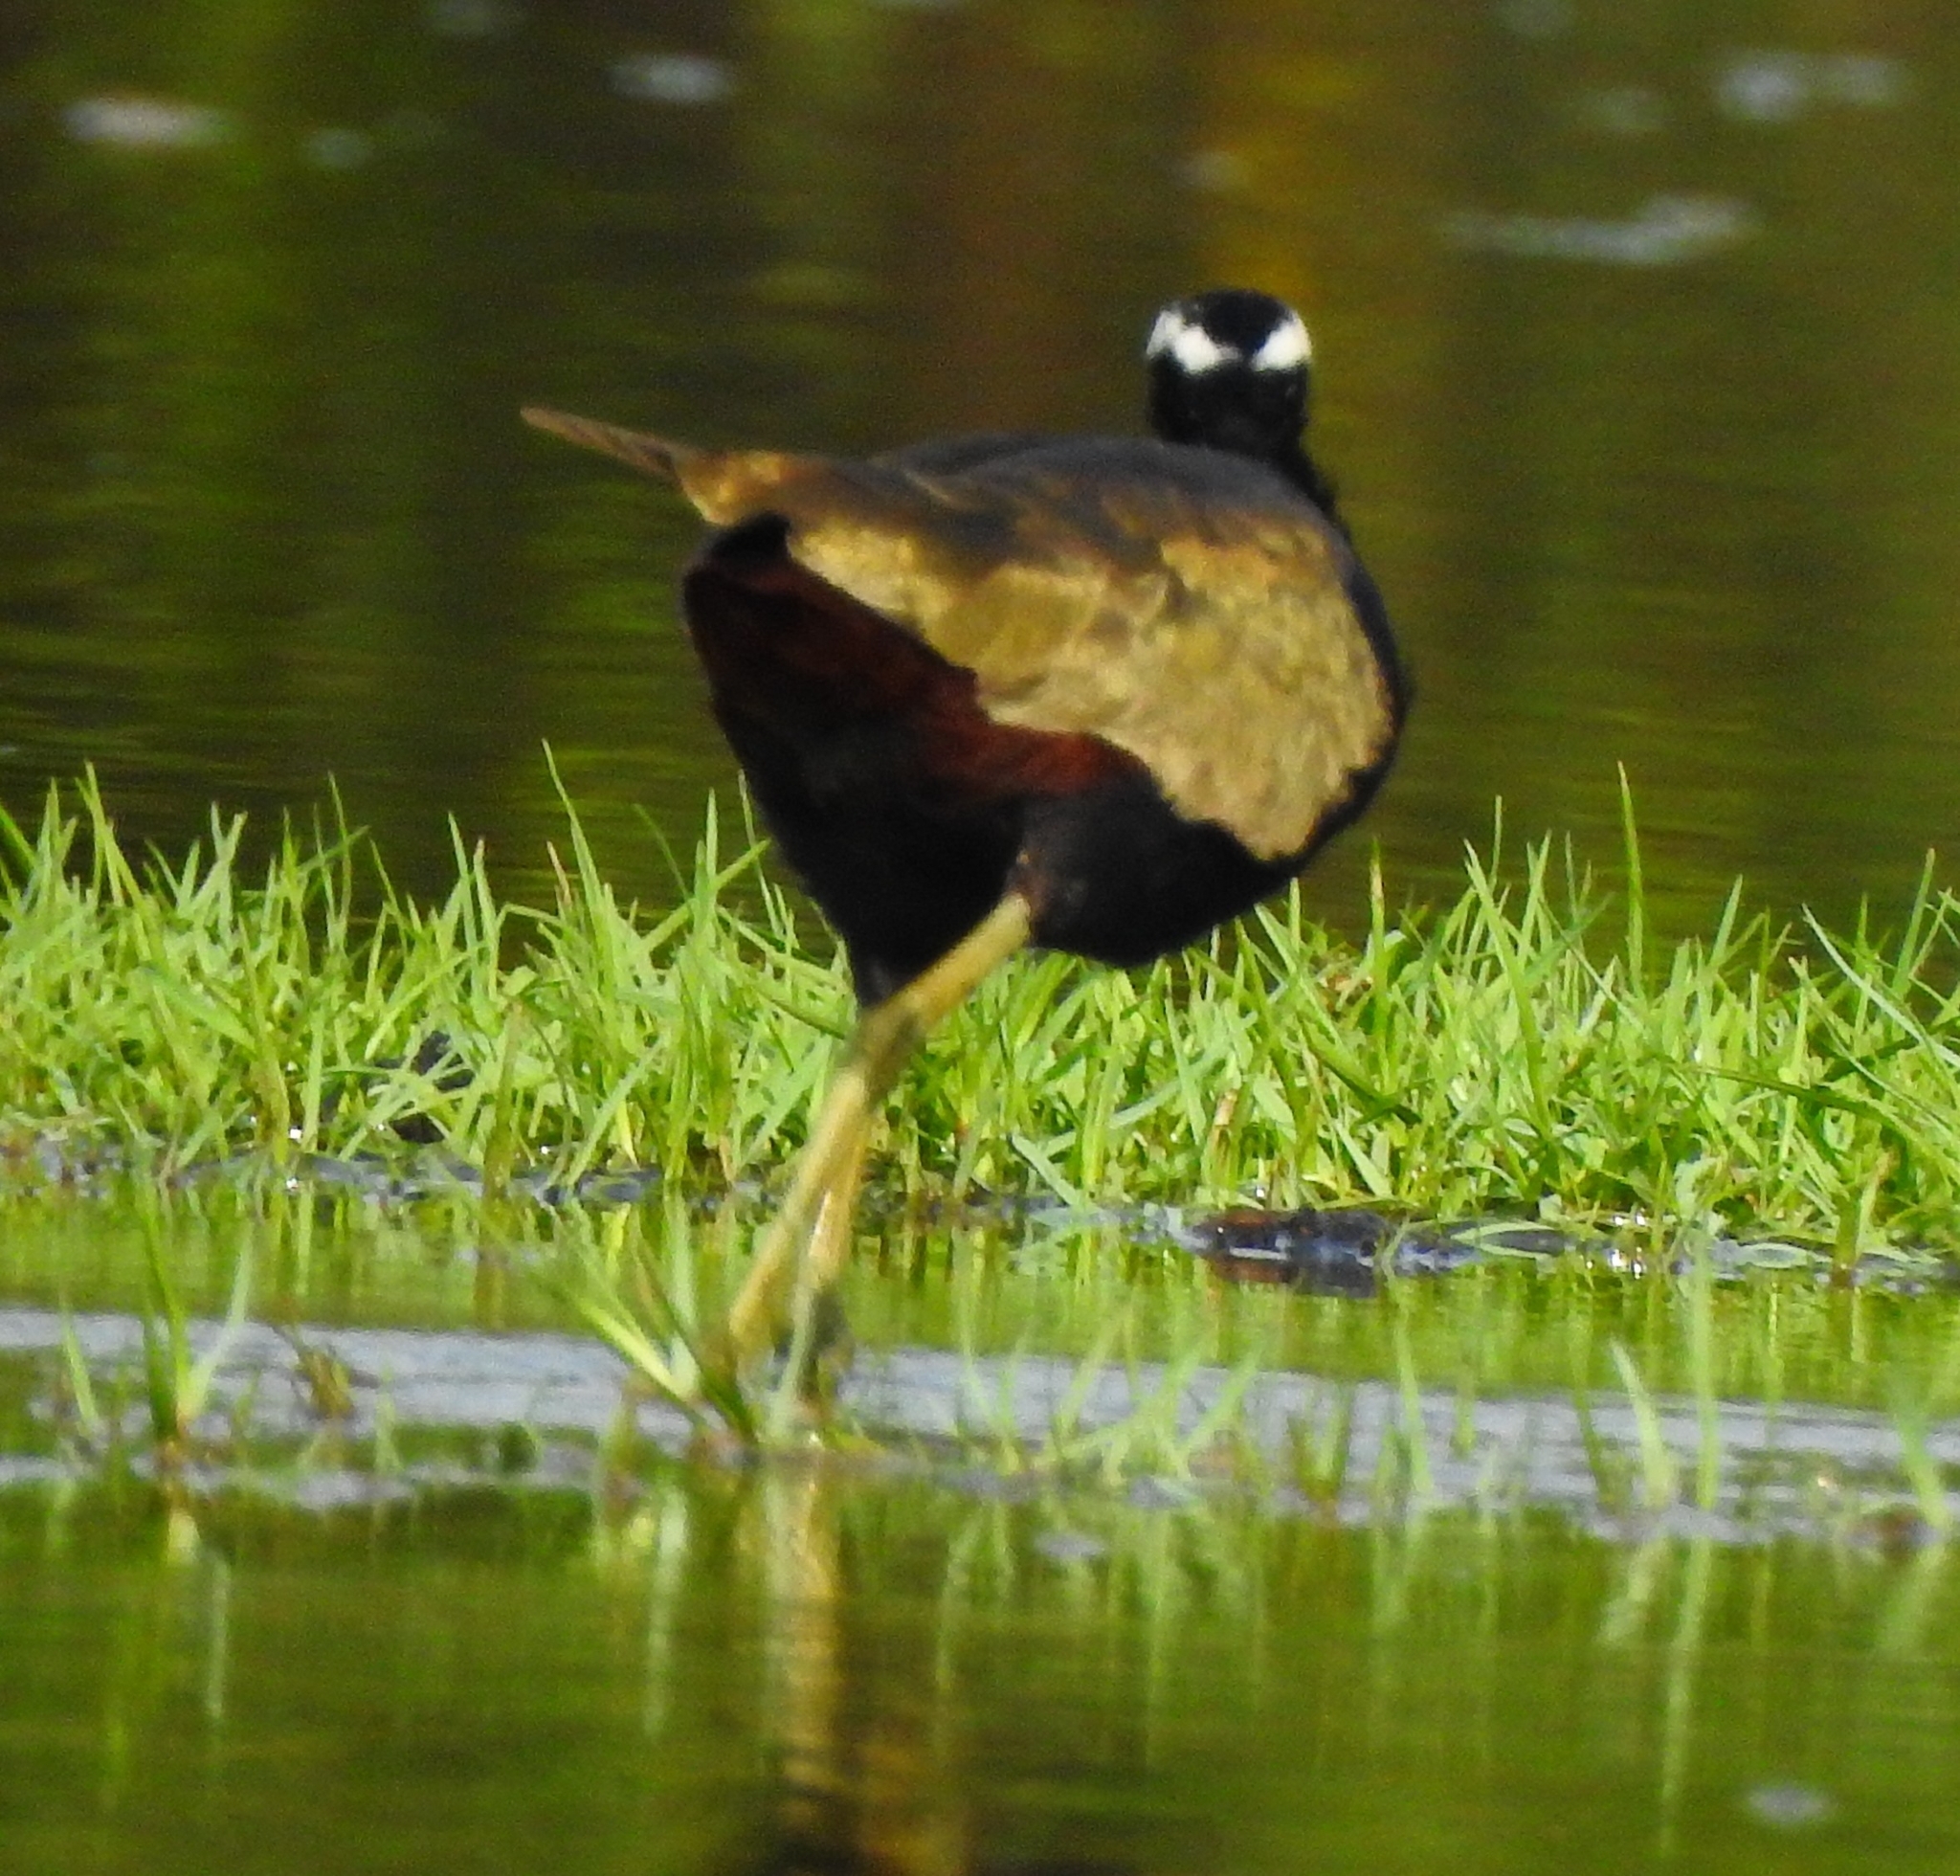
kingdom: Animalia
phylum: Chordata
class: Aves
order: Charadriiformes
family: Jacanidae
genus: Metopidius
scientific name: Metopidius indicus
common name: Bronze-winged jacana
